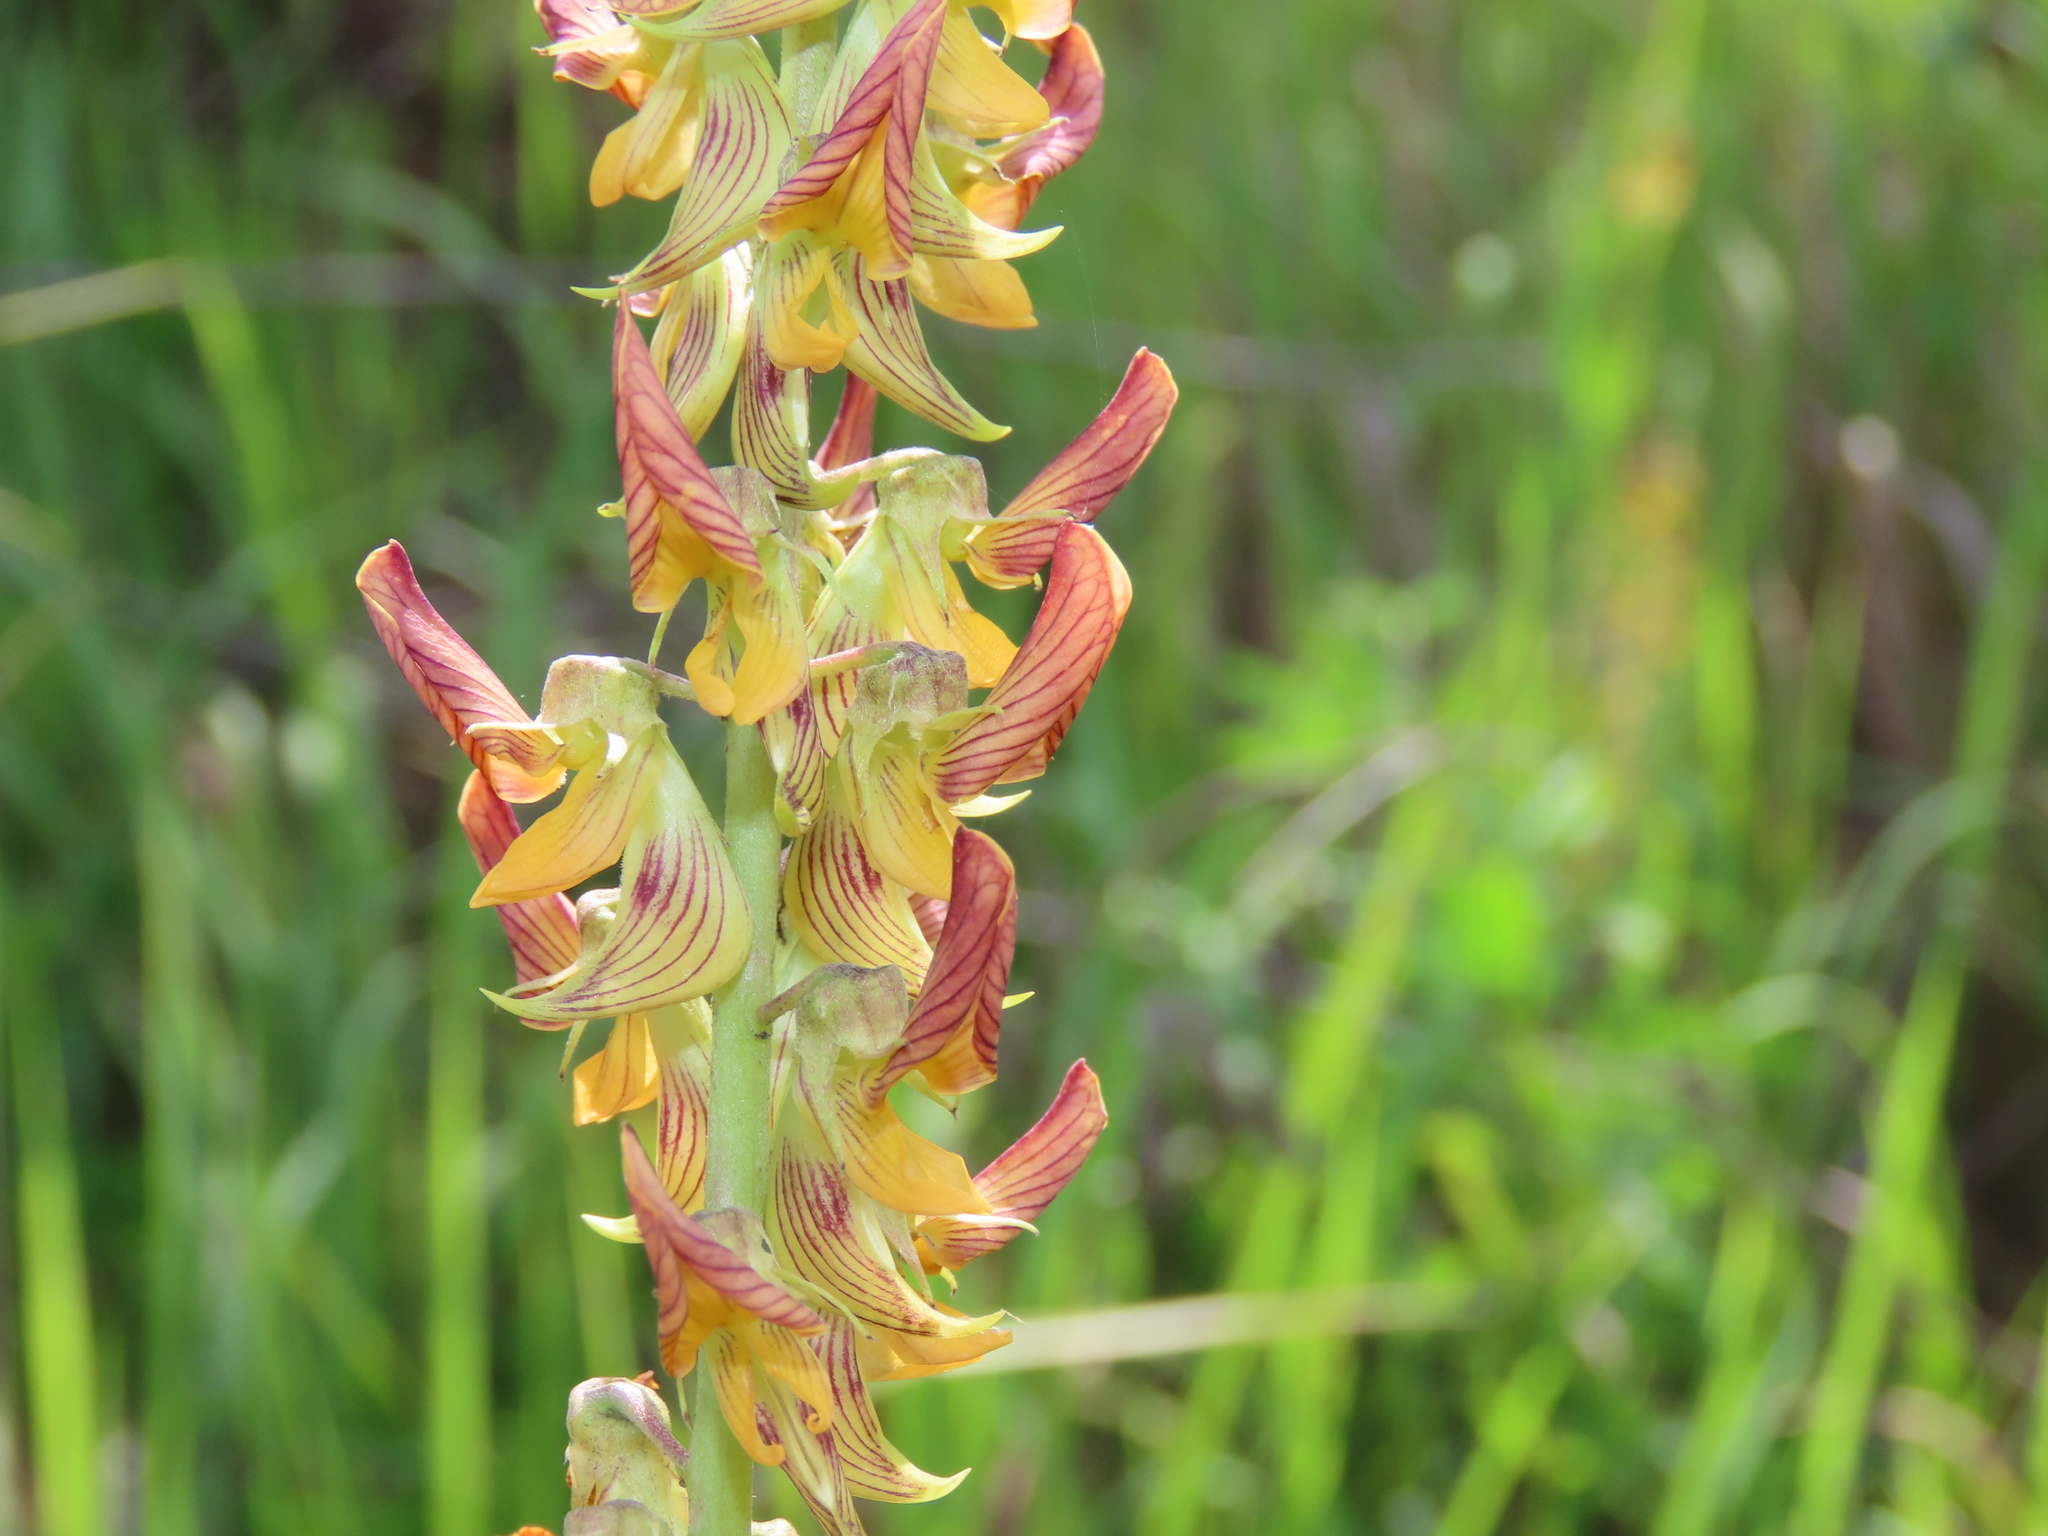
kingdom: Plantae
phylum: Tracheophyta
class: Magnoliopsida
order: Fabales
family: Fabaceae
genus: Crotalaria
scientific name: Crotalaria pallida
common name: Smooth rattlebox
